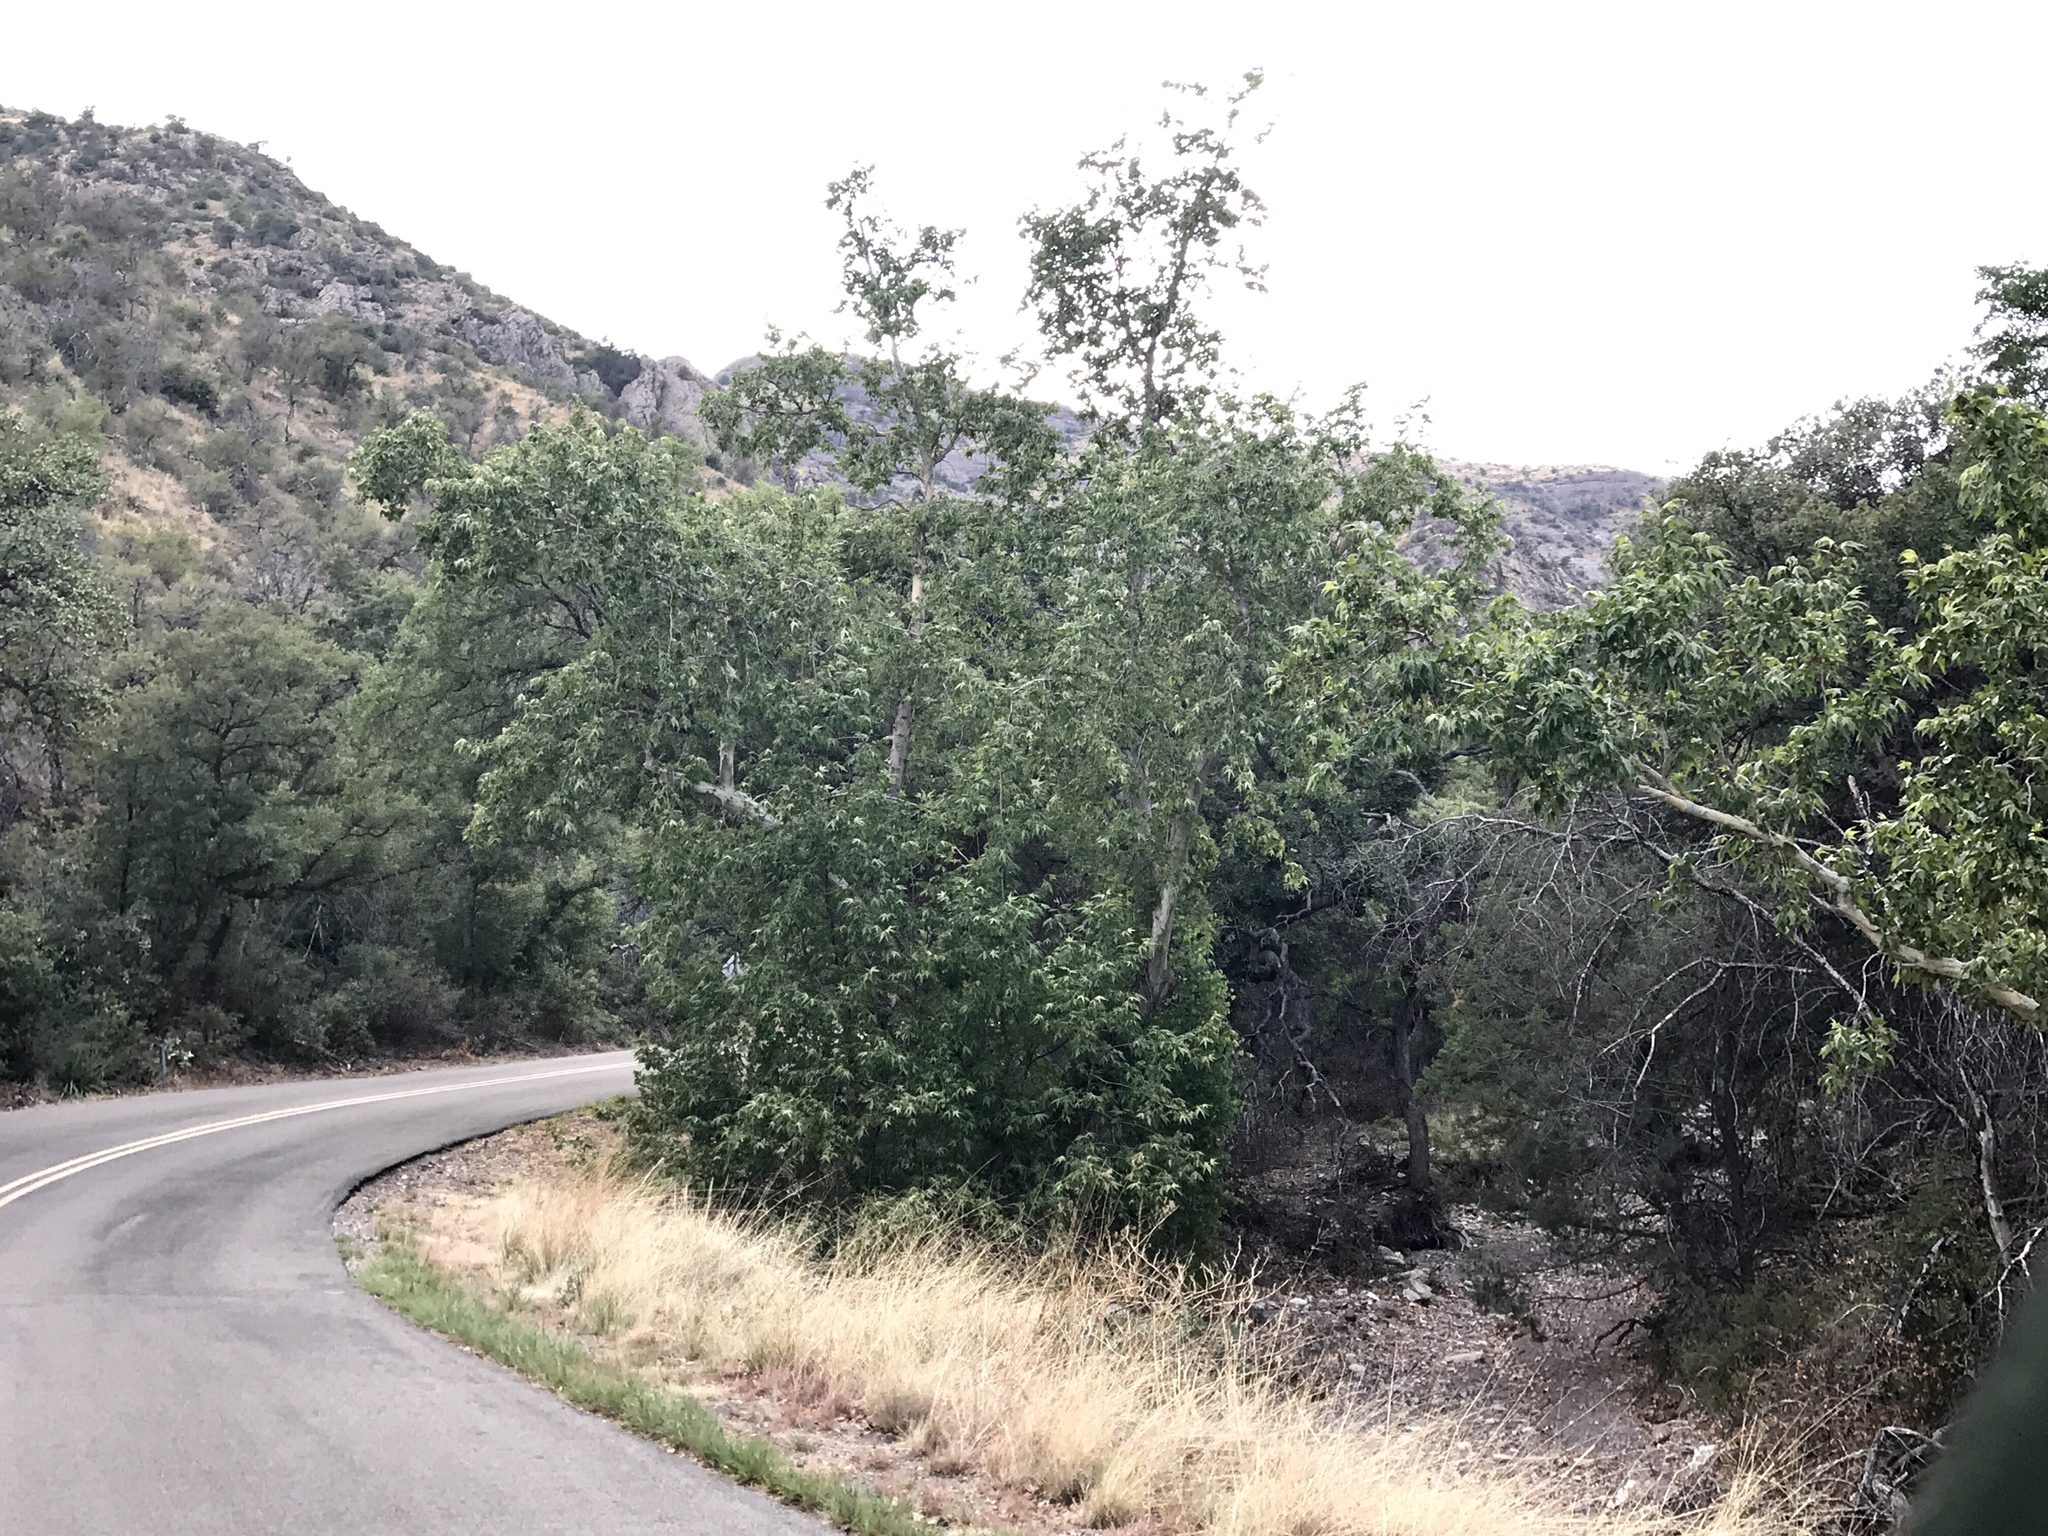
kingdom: Plantae
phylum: Tracheophyta
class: Magnoliopsida
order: Proteales
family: Platanaceae
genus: Platanus
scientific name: Platanus wrightii
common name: Arizona sycamore
